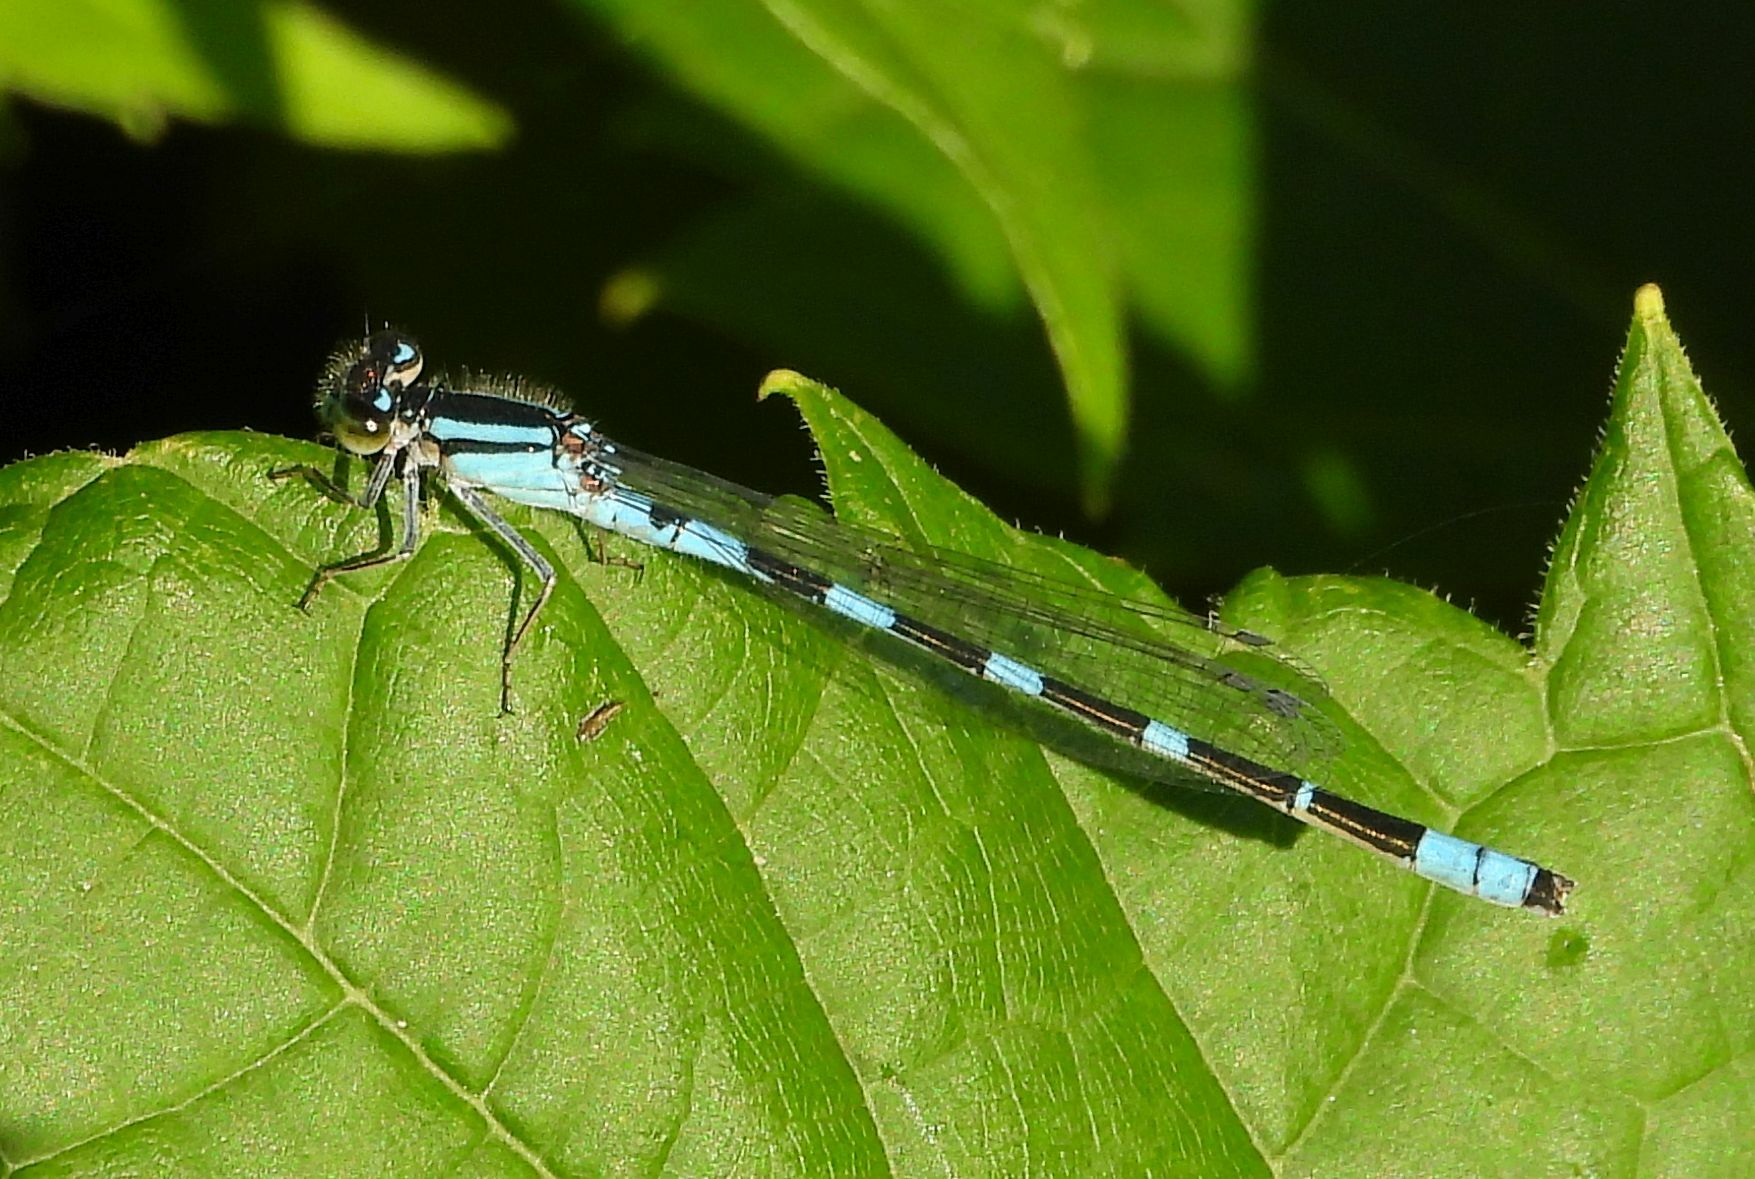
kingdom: Animalia
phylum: Arthropoda
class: Insecta
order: Odonata
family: Coenagrionidae
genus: Enallagma
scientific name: Enallagma carunculatum
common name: Tule bluet
